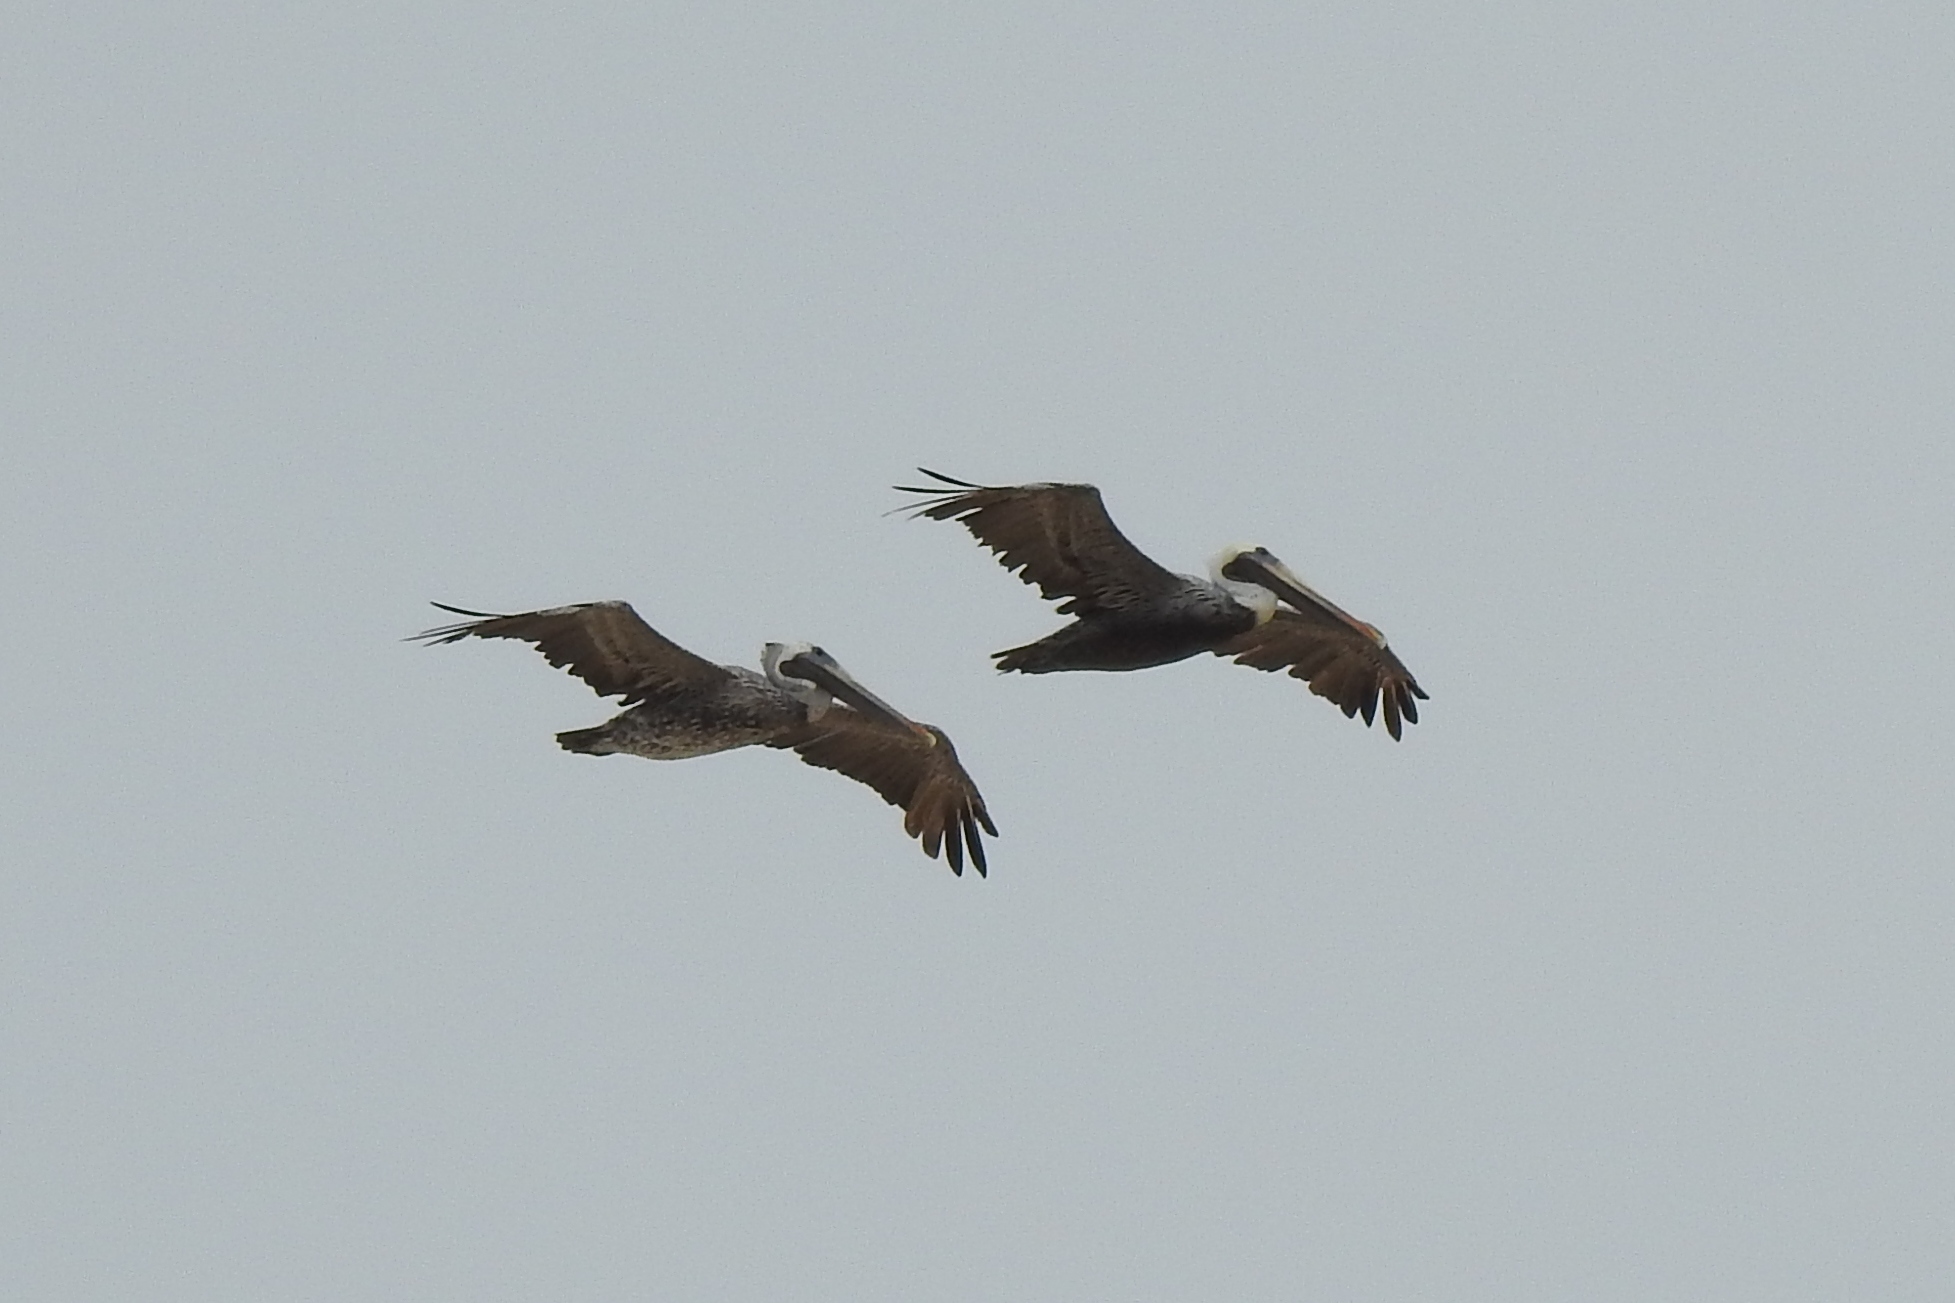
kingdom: Animalia
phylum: Chordata
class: Aves
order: Pelecaniformes
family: Pelecanidae
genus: Pelecanus
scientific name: Pelecanus occidentalis
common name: Brown pelican
